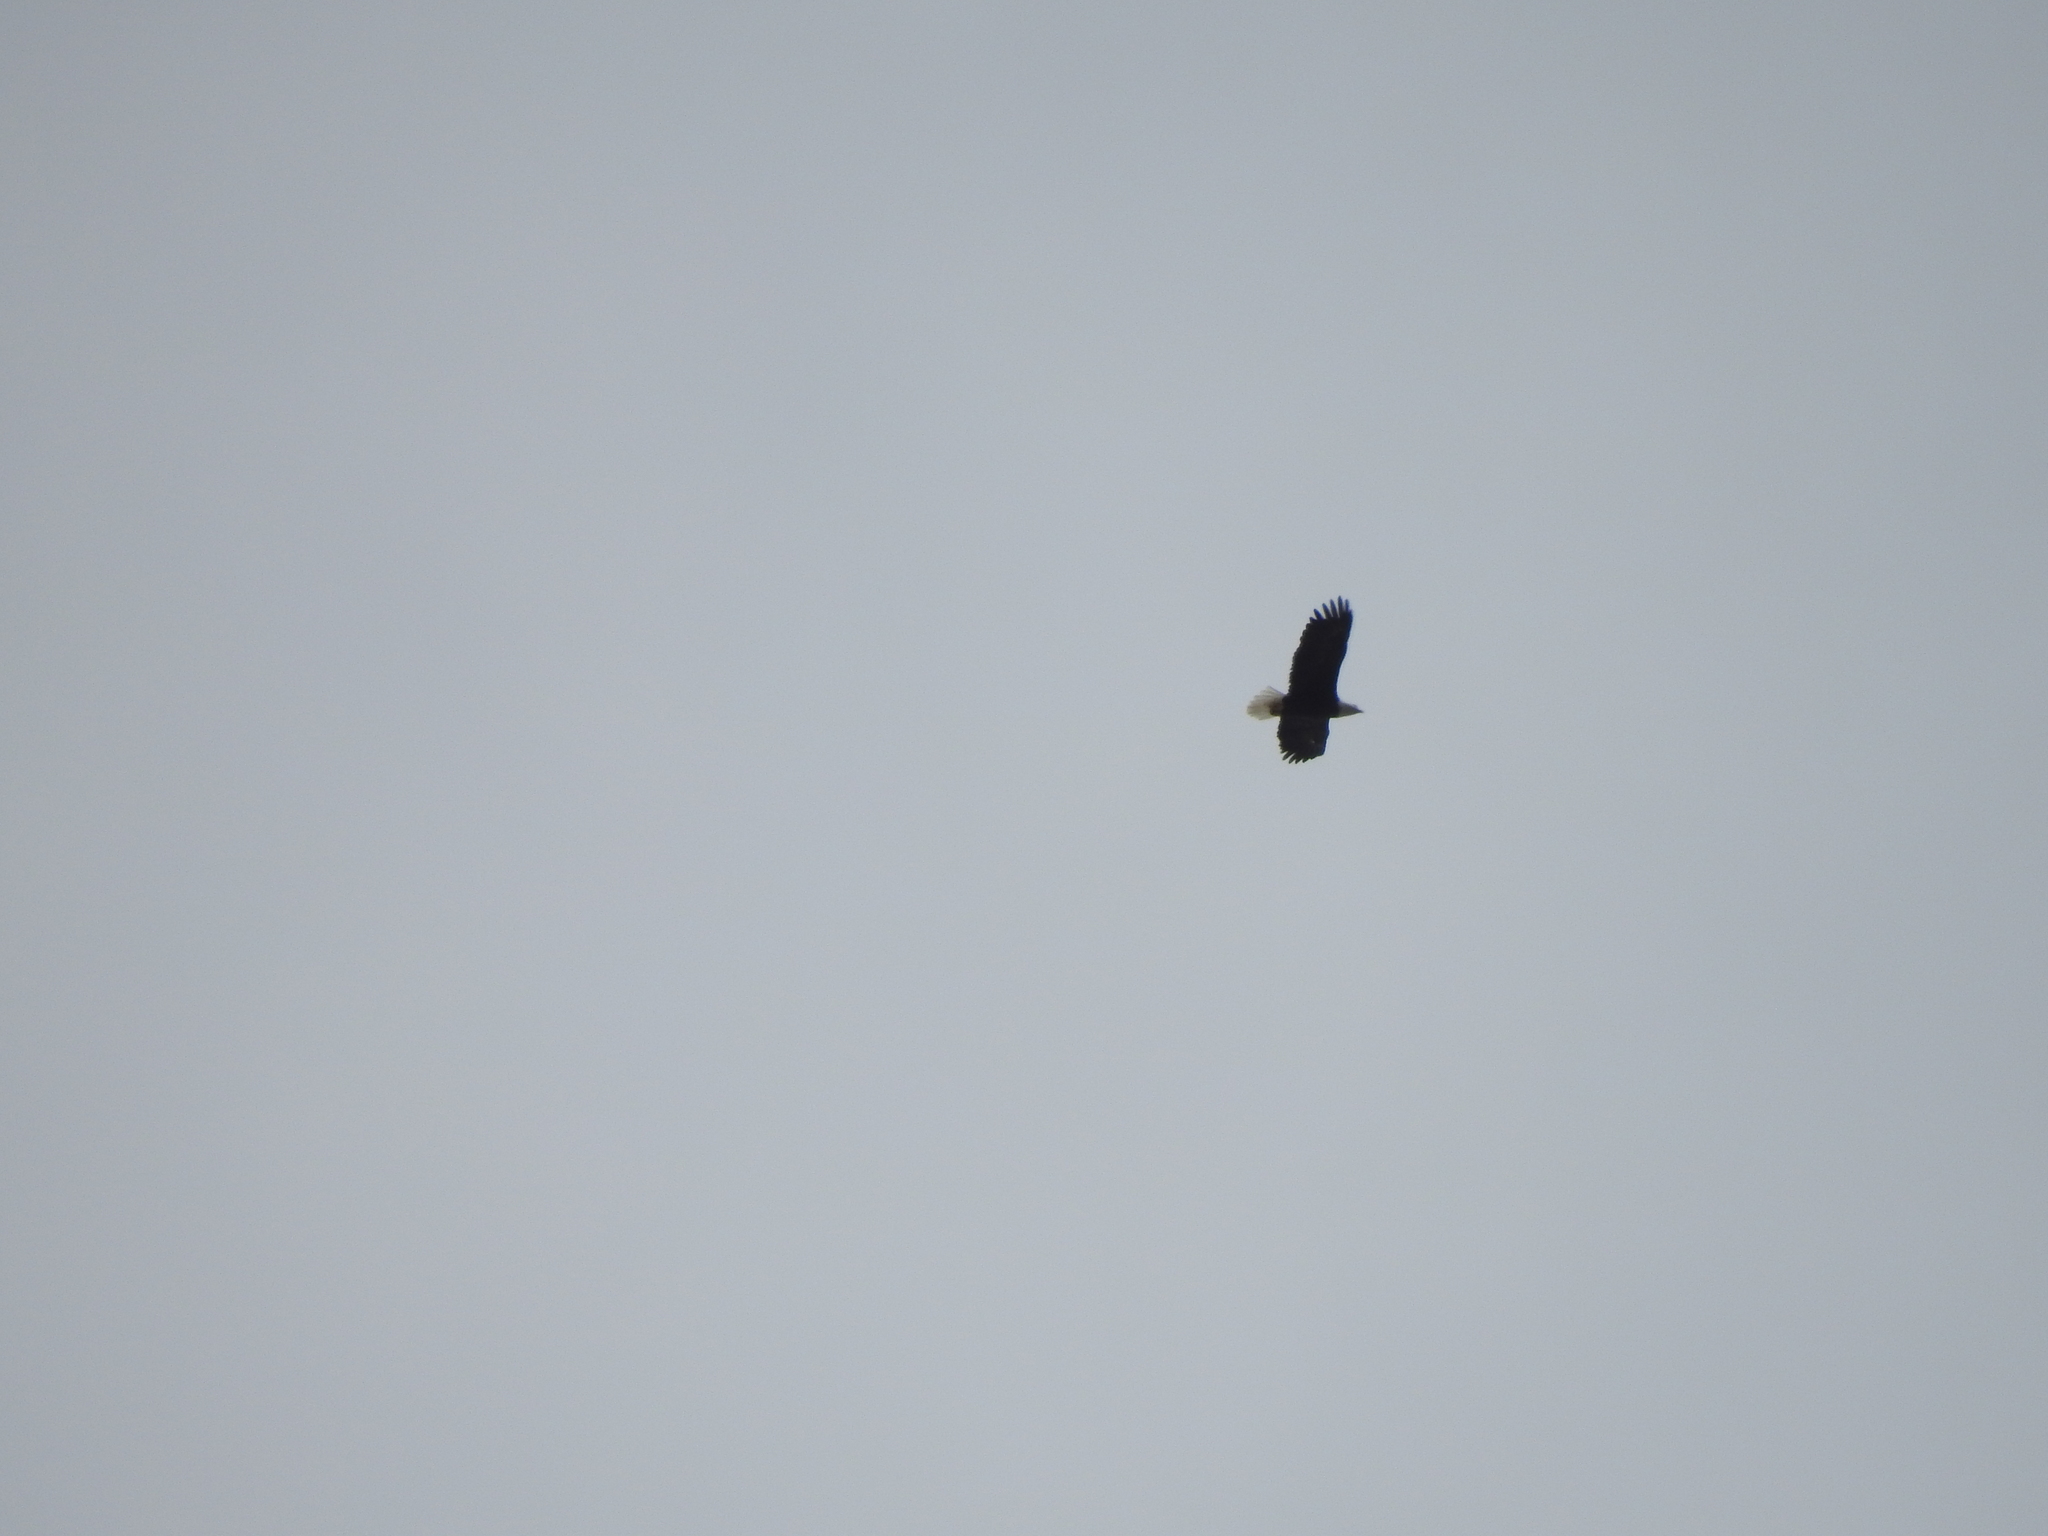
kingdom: Animalia
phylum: Chordata
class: Aves
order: Accipitriformes
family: Accipitridae
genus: Haliaeetus
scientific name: Haliaeetus leucocephalus
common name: Bald eagle
